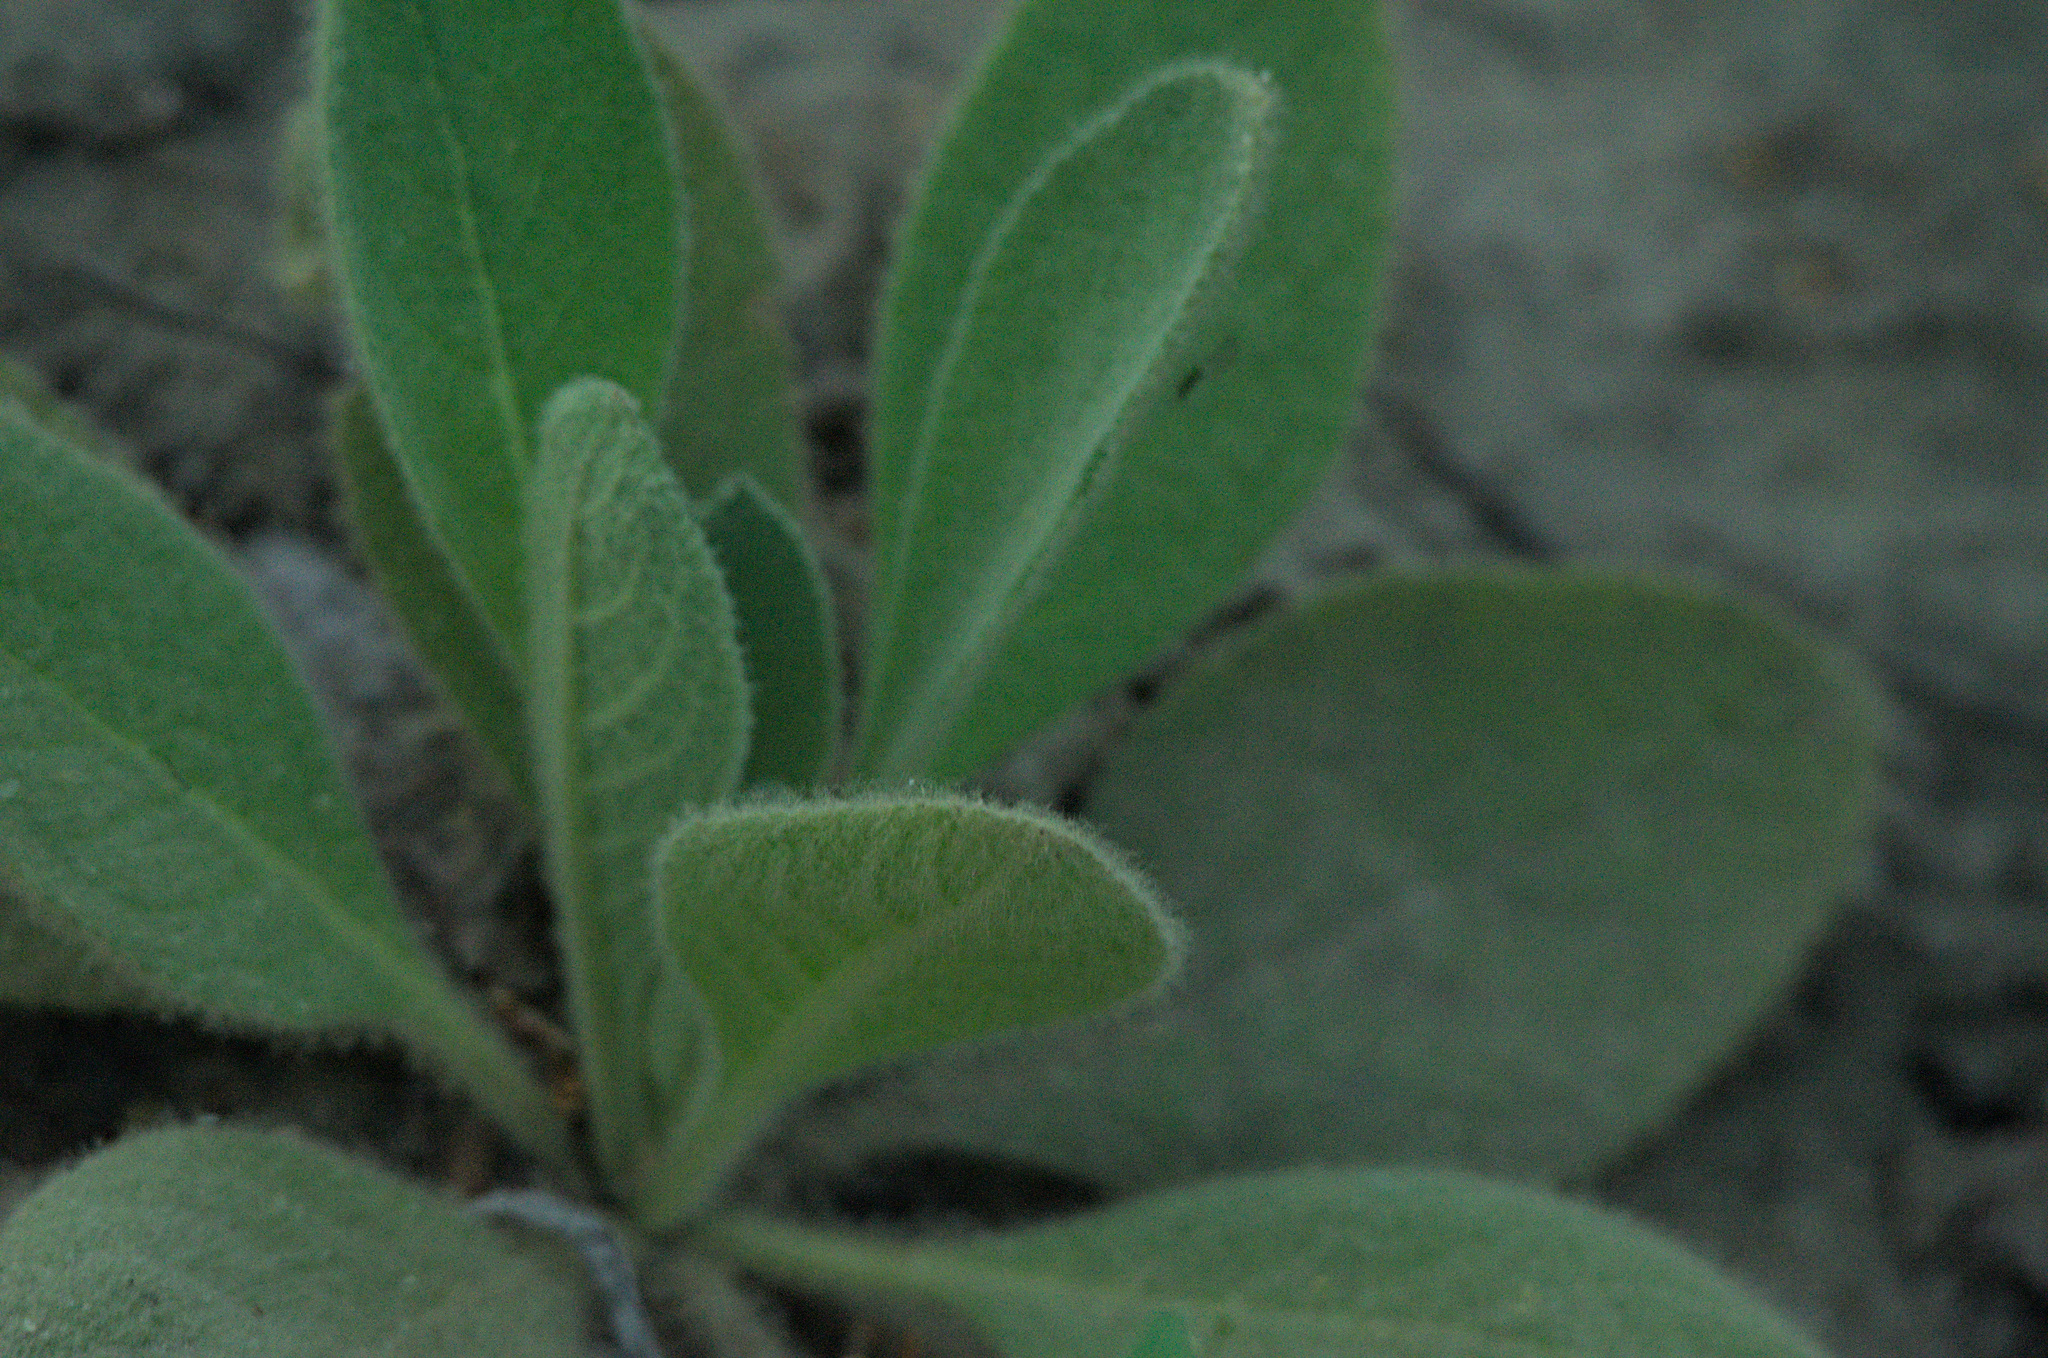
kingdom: Plantae
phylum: Tracheophyta
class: Magnoliopsida
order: Lamiales
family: Scrophulariaceae
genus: Verbascum
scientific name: Verbascum thapsus
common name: Common mullein
